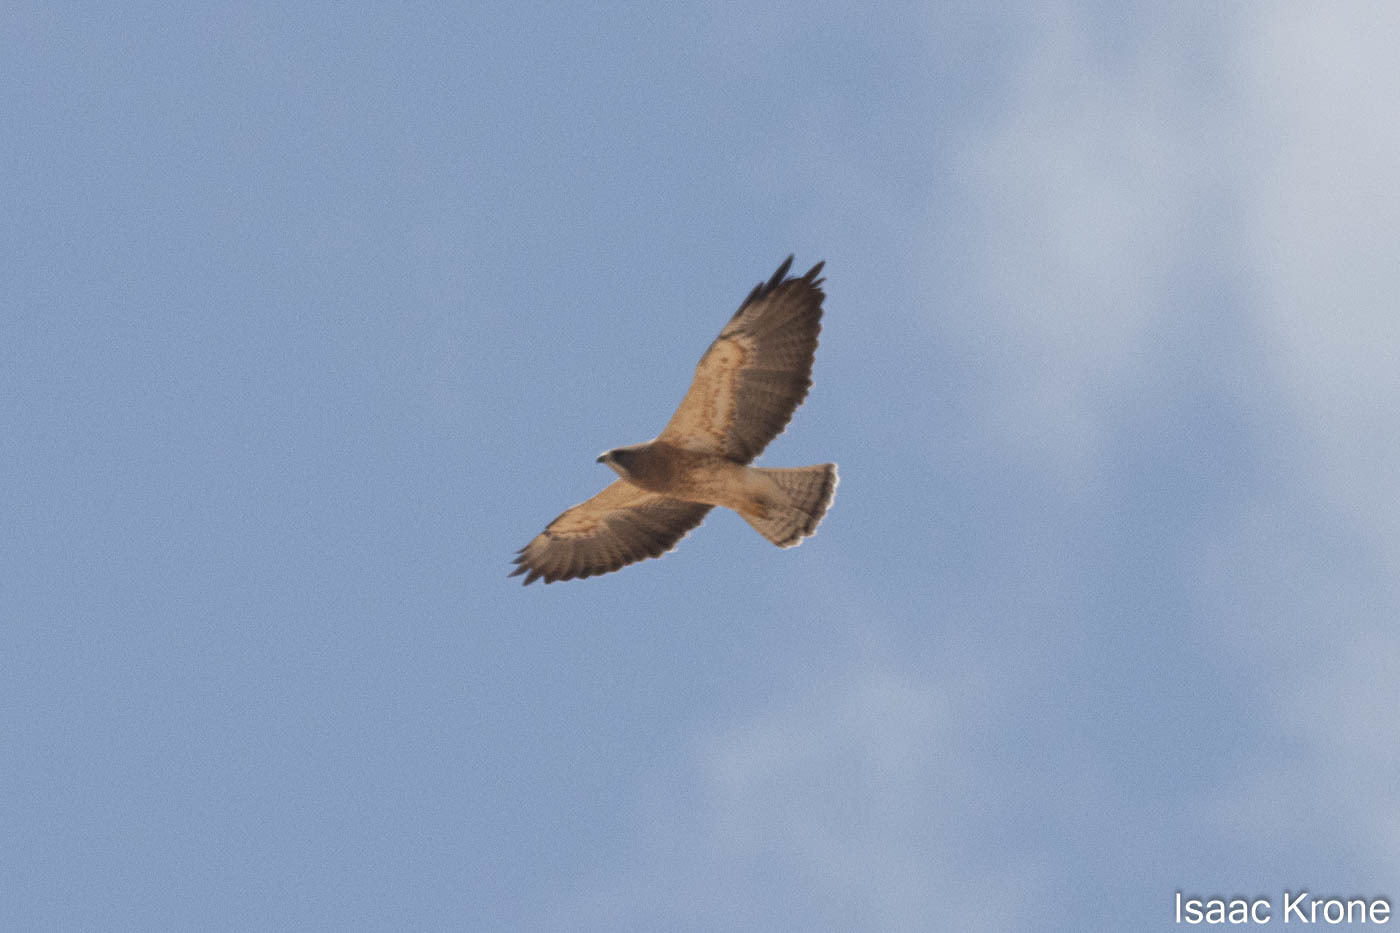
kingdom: Animalia
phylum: Chordata
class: Aves
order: Accipitriformes
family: Accipitridae
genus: Buteo
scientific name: Buteo swainsoni
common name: Swainson's hawk
